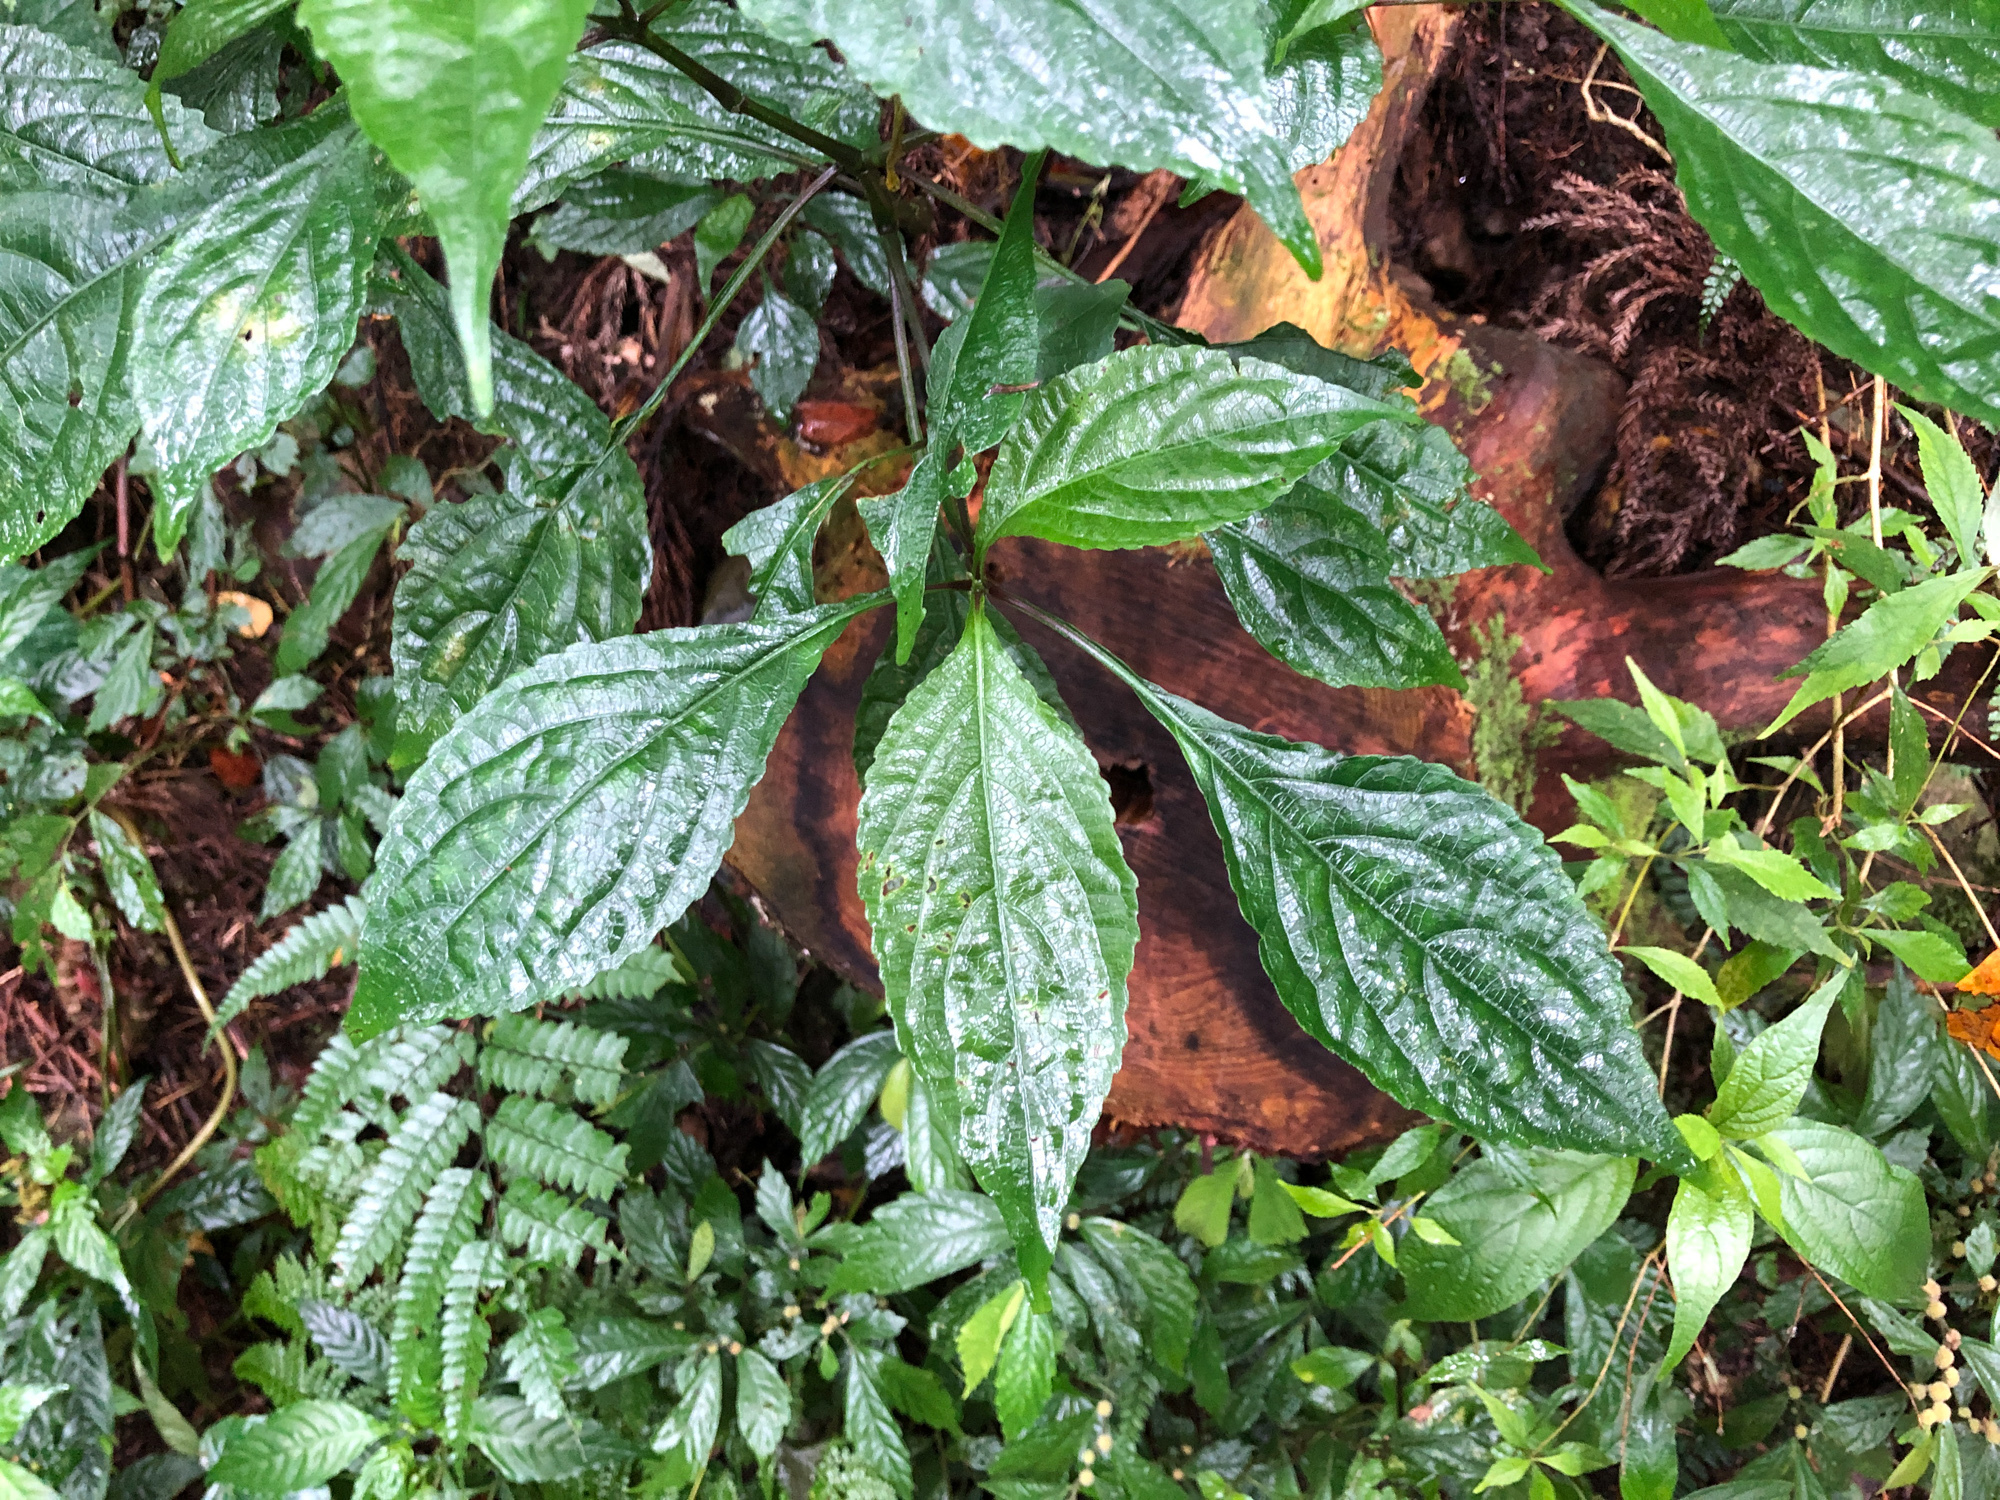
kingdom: Plantae
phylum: Tracheophyta
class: Magnoliopsida
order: Lamiales
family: Acanthaceae
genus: Strobilanthes
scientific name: Strobilanthes flexicaulis
